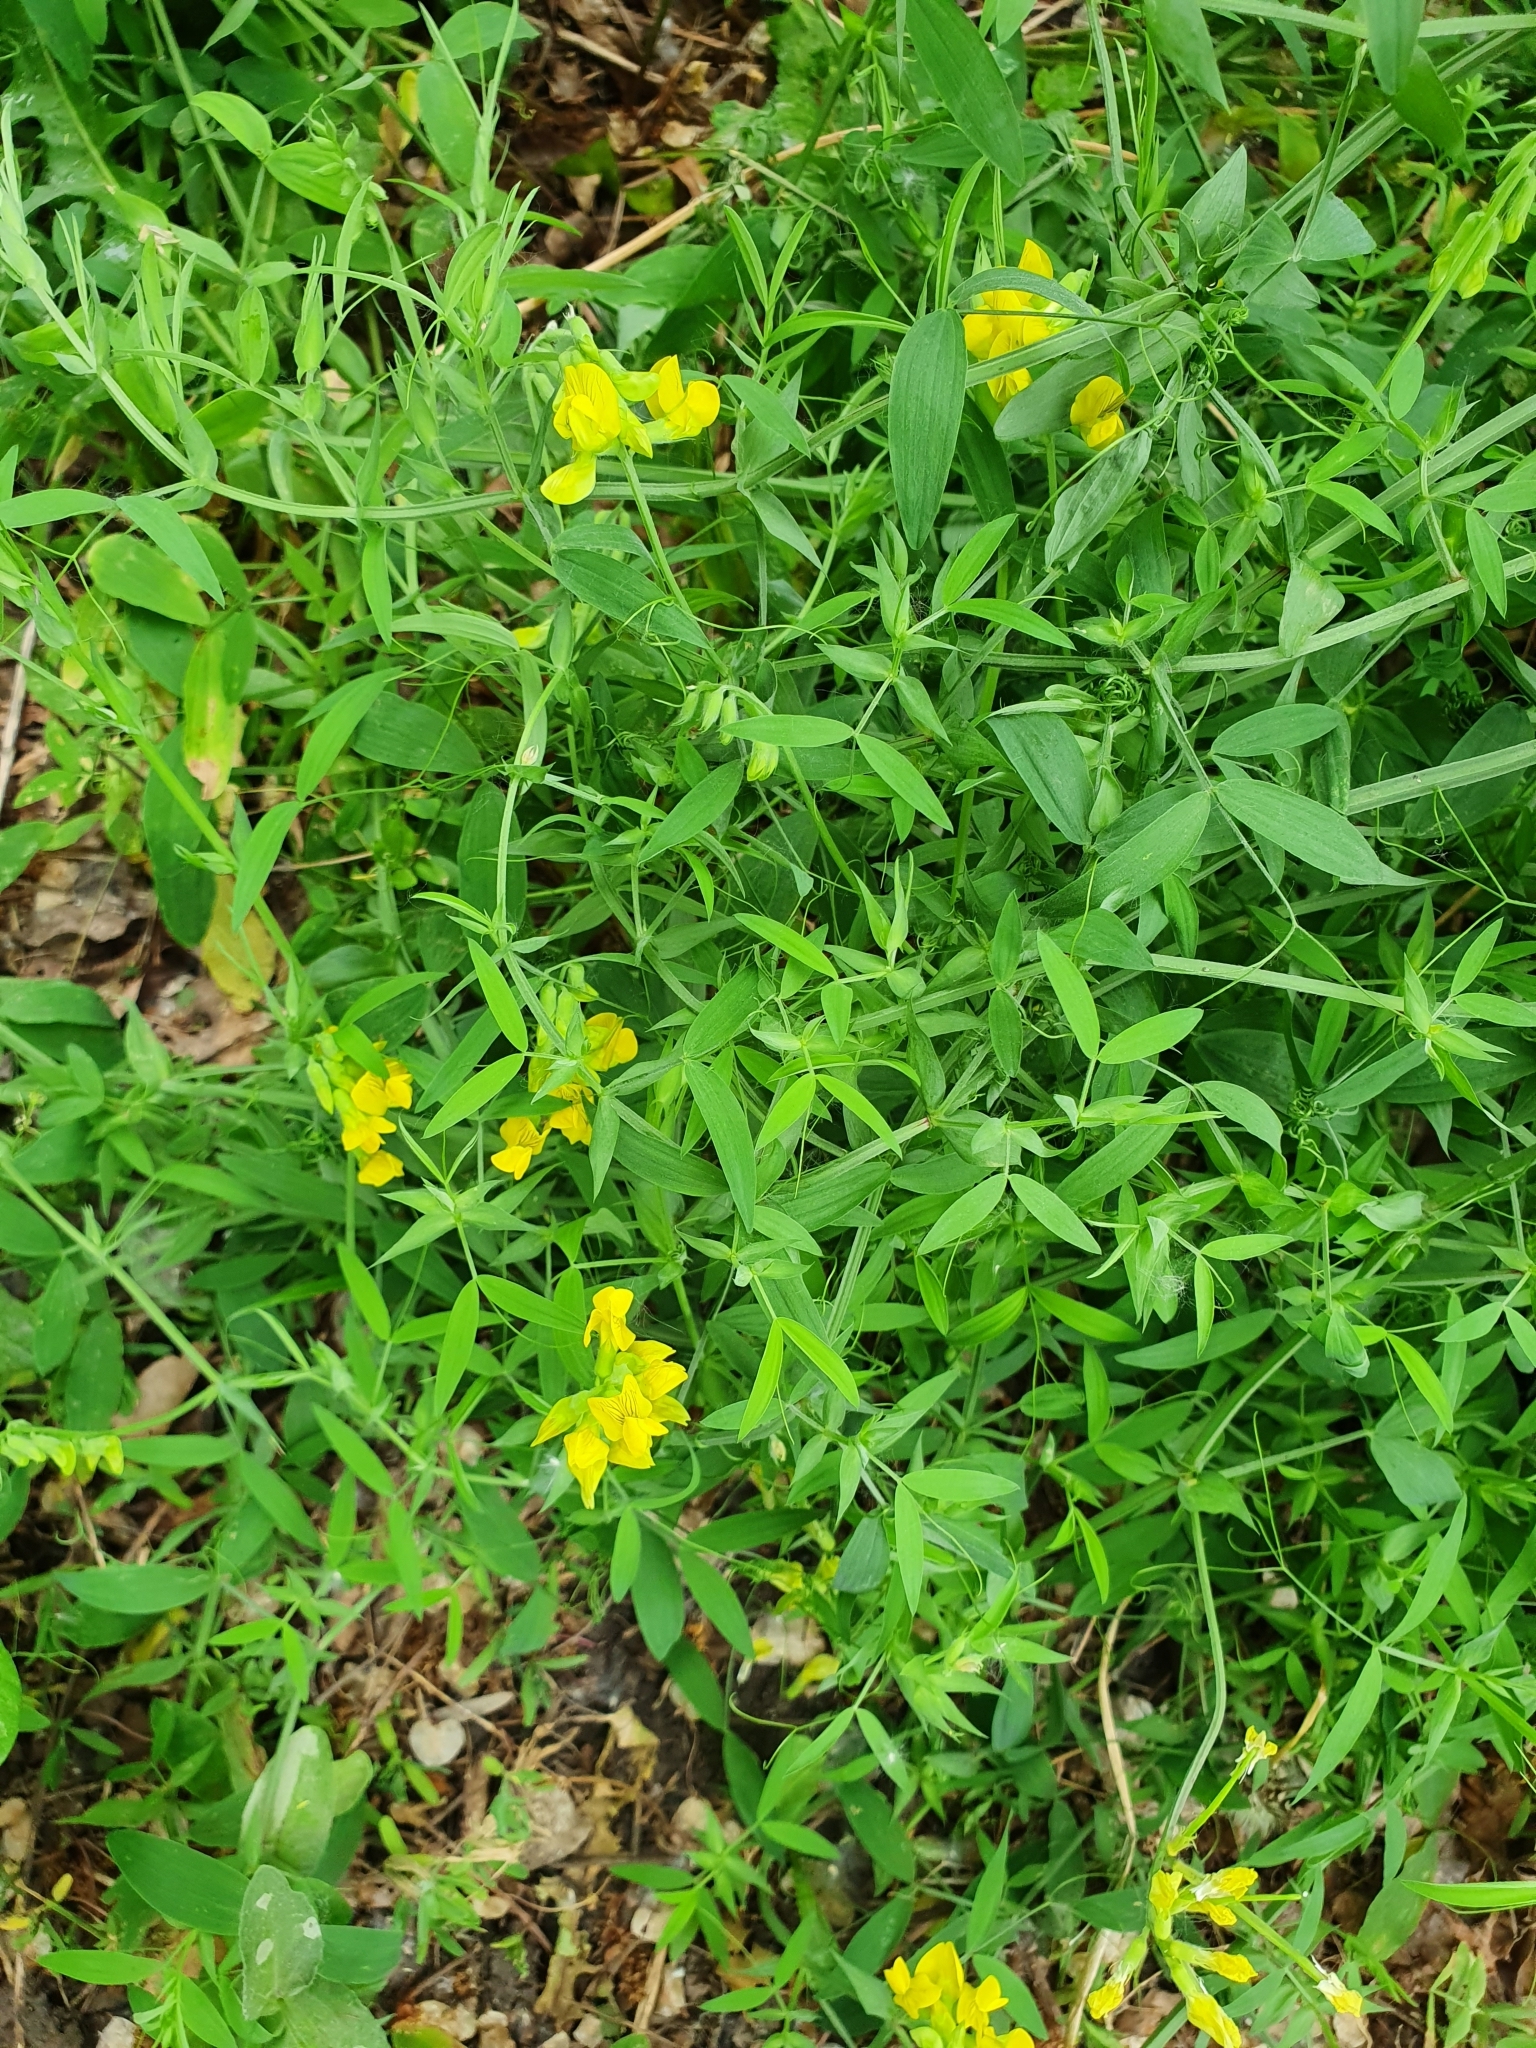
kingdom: Plantae
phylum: Tracheophyta
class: Magnoliopsida
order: Fabales
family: Fabaceae
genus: Lathyrus
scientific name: Lathyrus pratensis
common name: Meadow vetchling
